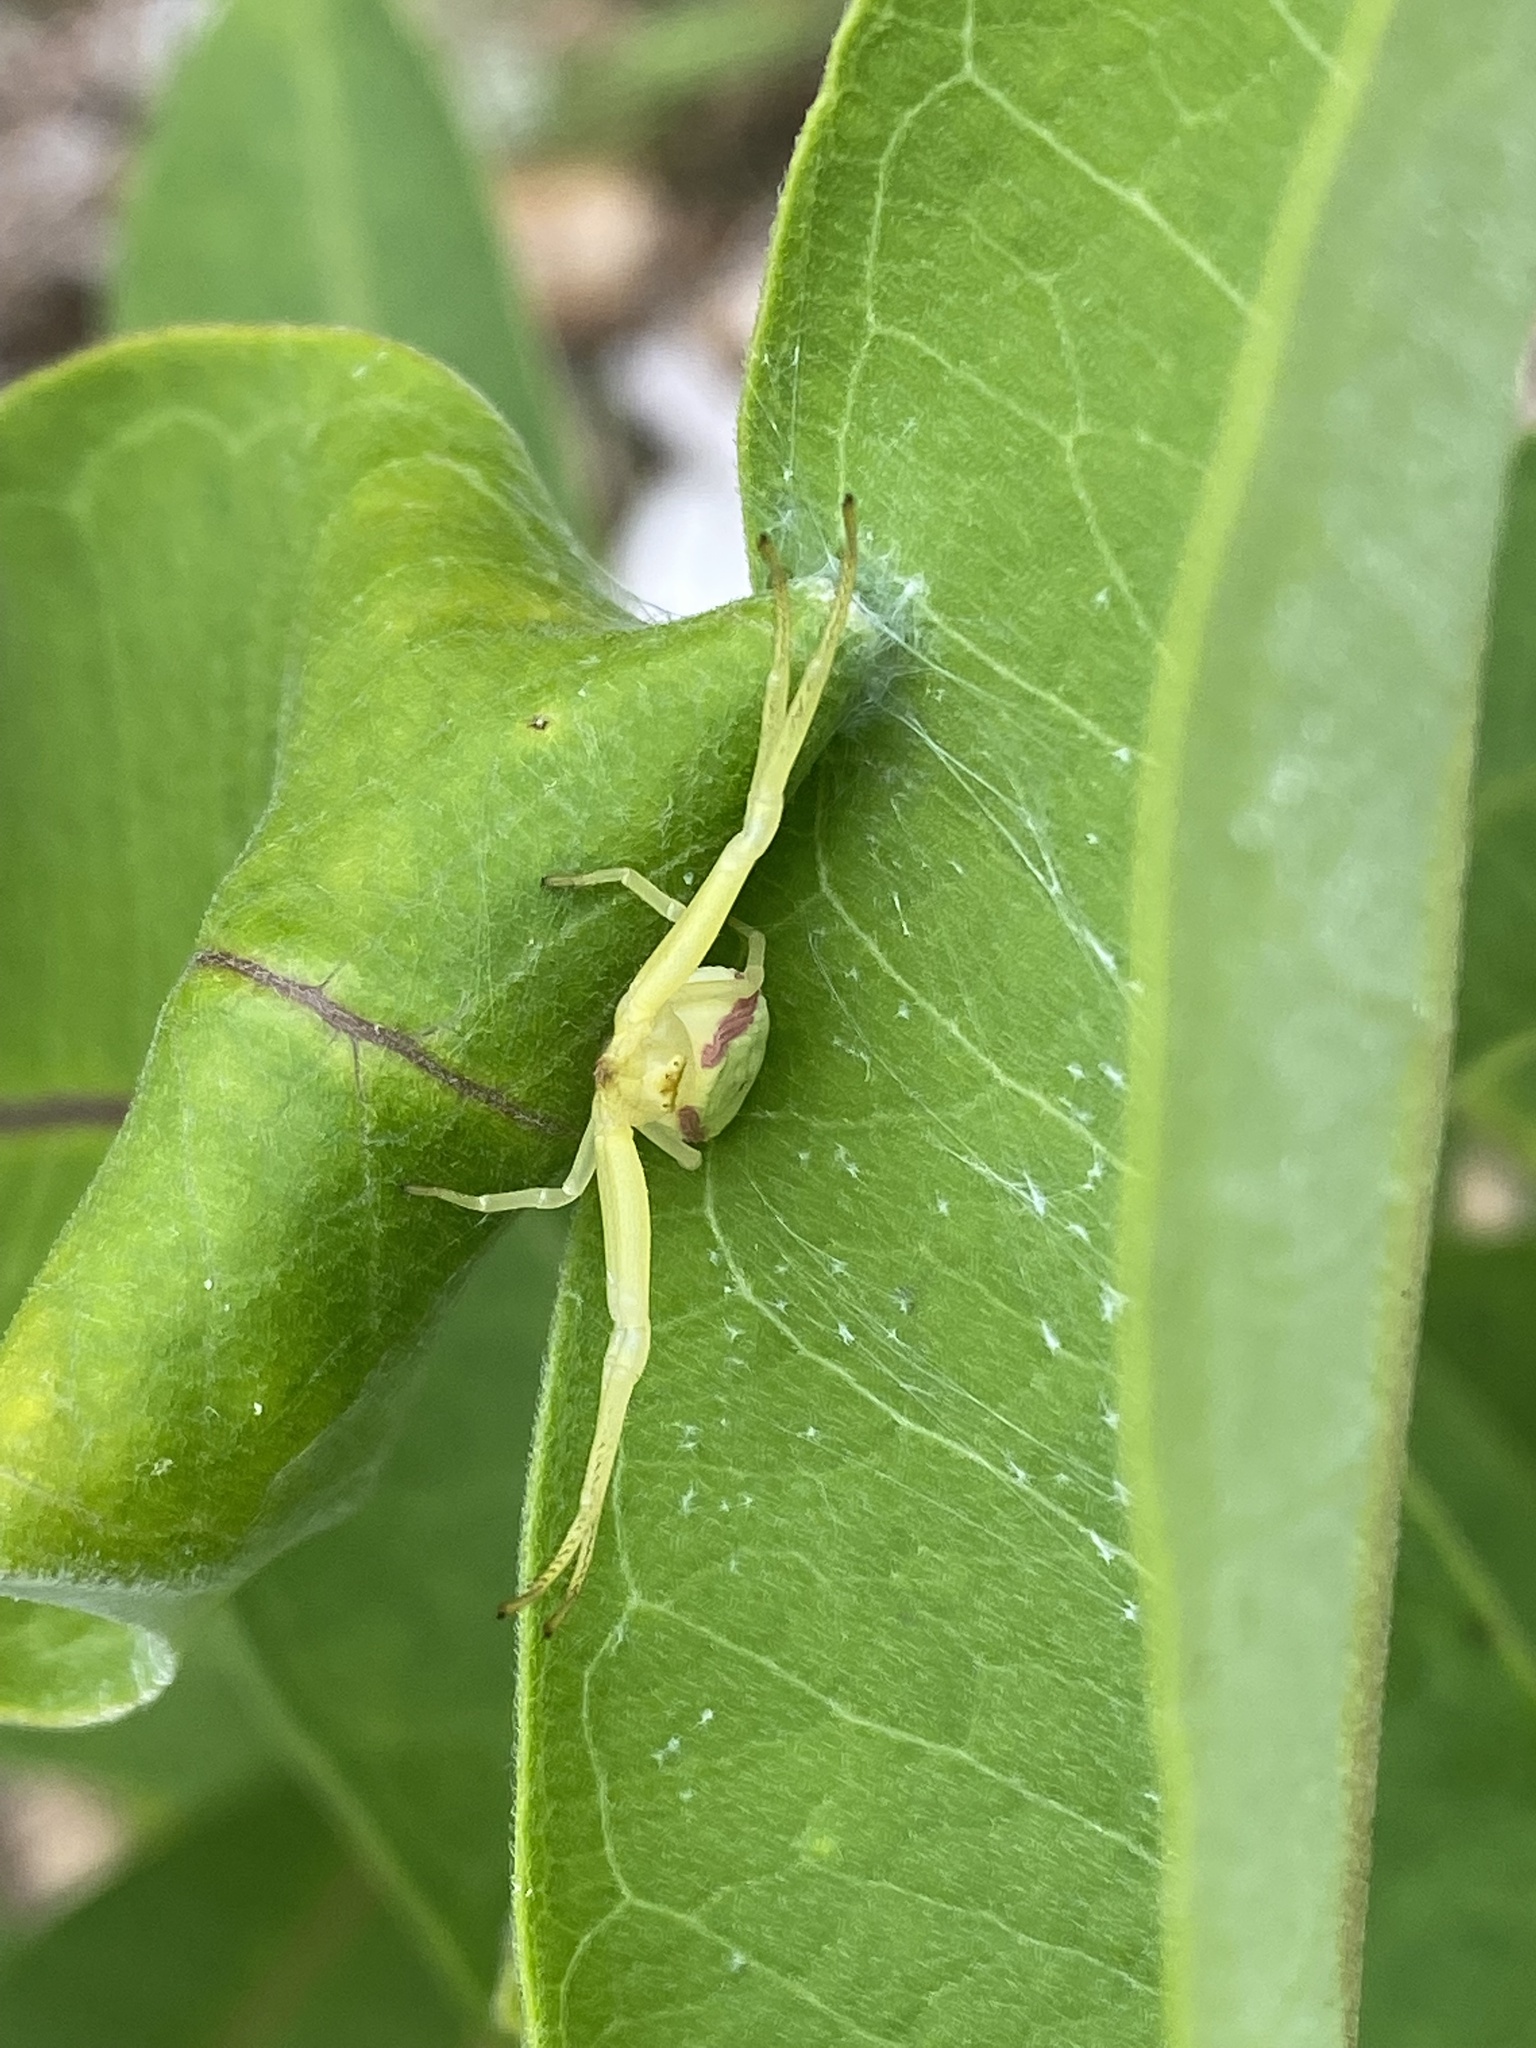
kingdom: Animalia
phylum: Arthropoda
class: Arachnida
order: Araneae
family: Thomisidae
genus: Misumena
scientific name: Misumena vatia
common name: Goldenrod crab spider
